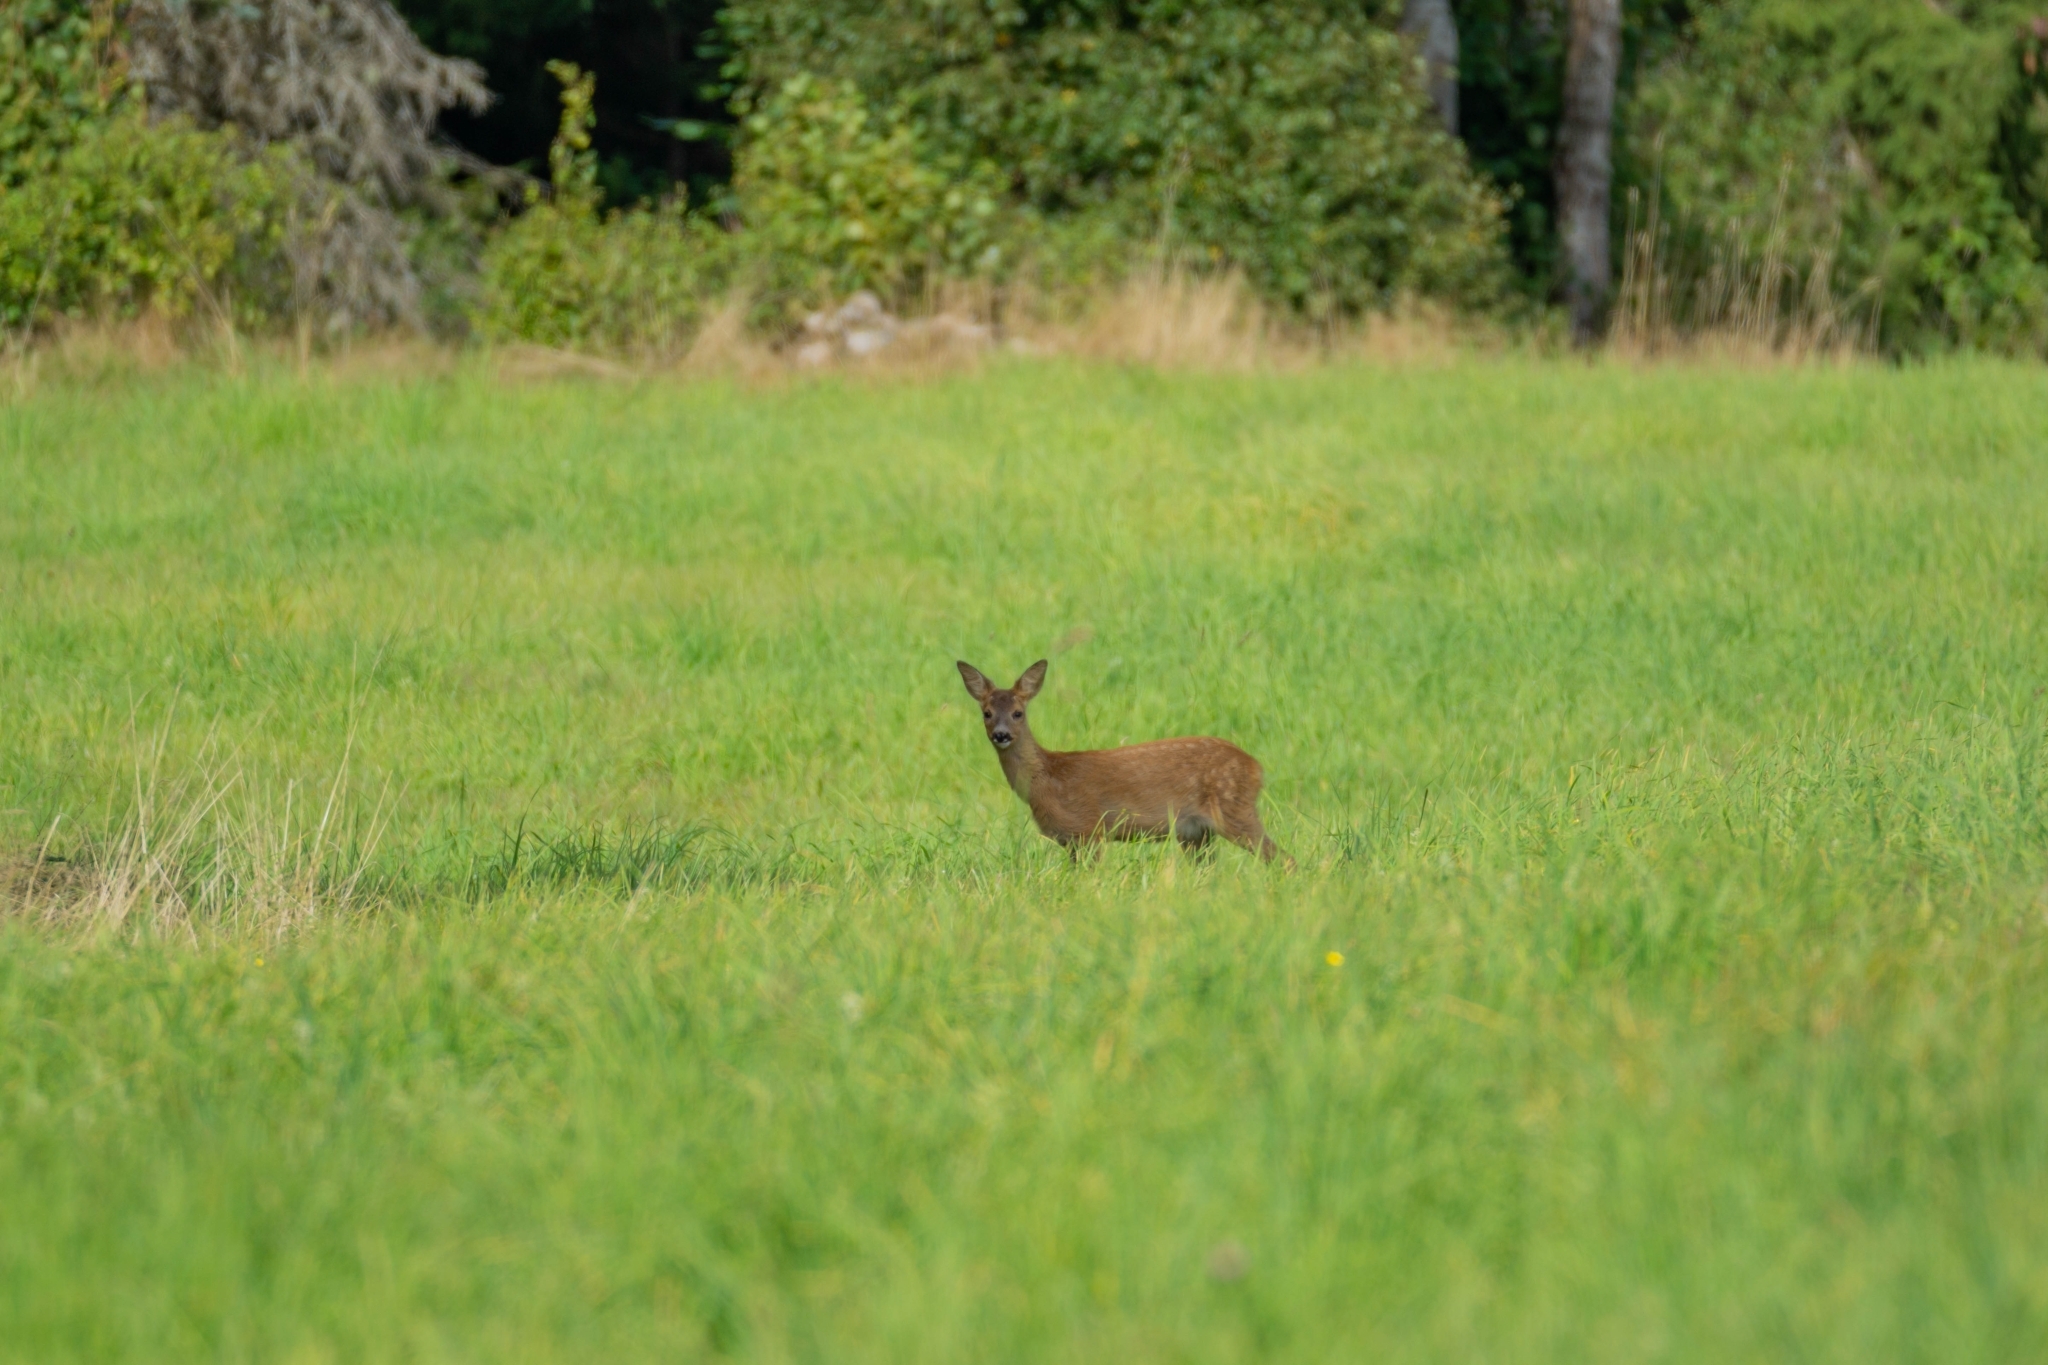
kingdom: Animalia
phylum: Chordata
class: Mammalia
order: Artiodactyla
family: Cervidae
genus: Capreolus
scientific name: Capreolus capreolus
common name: Western roe deer
